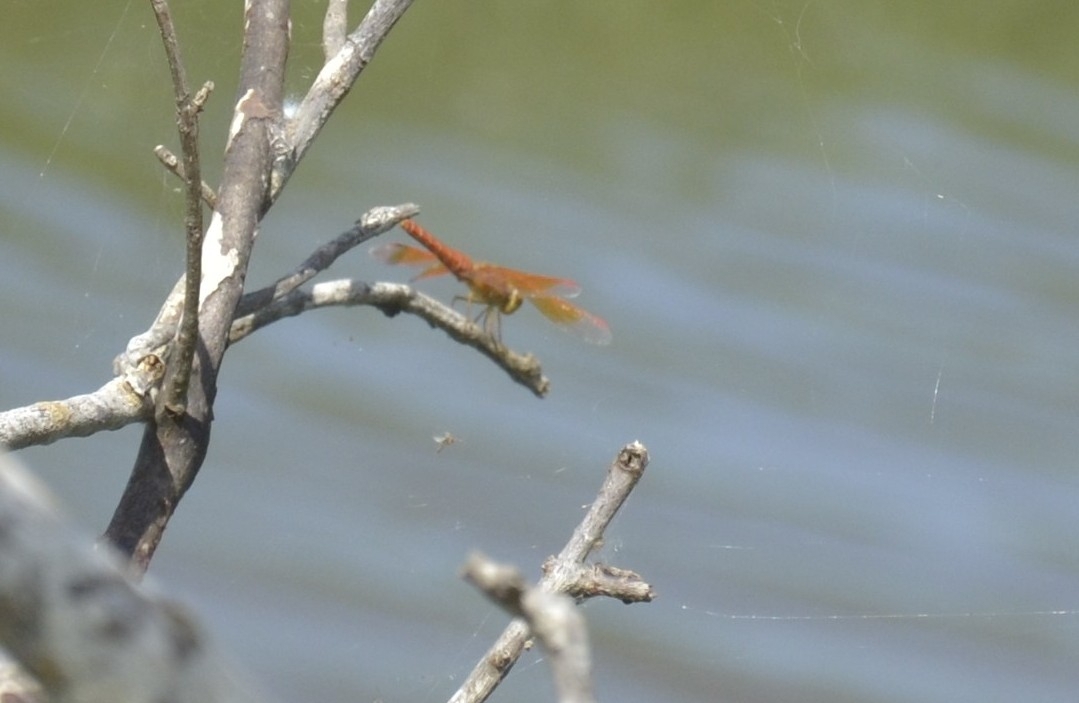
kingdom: Animalia
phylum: Arthropoda
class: Insecta
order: Odonata
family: Libellulidae
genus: Brachythemis
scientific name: Brachythemis contaminata
